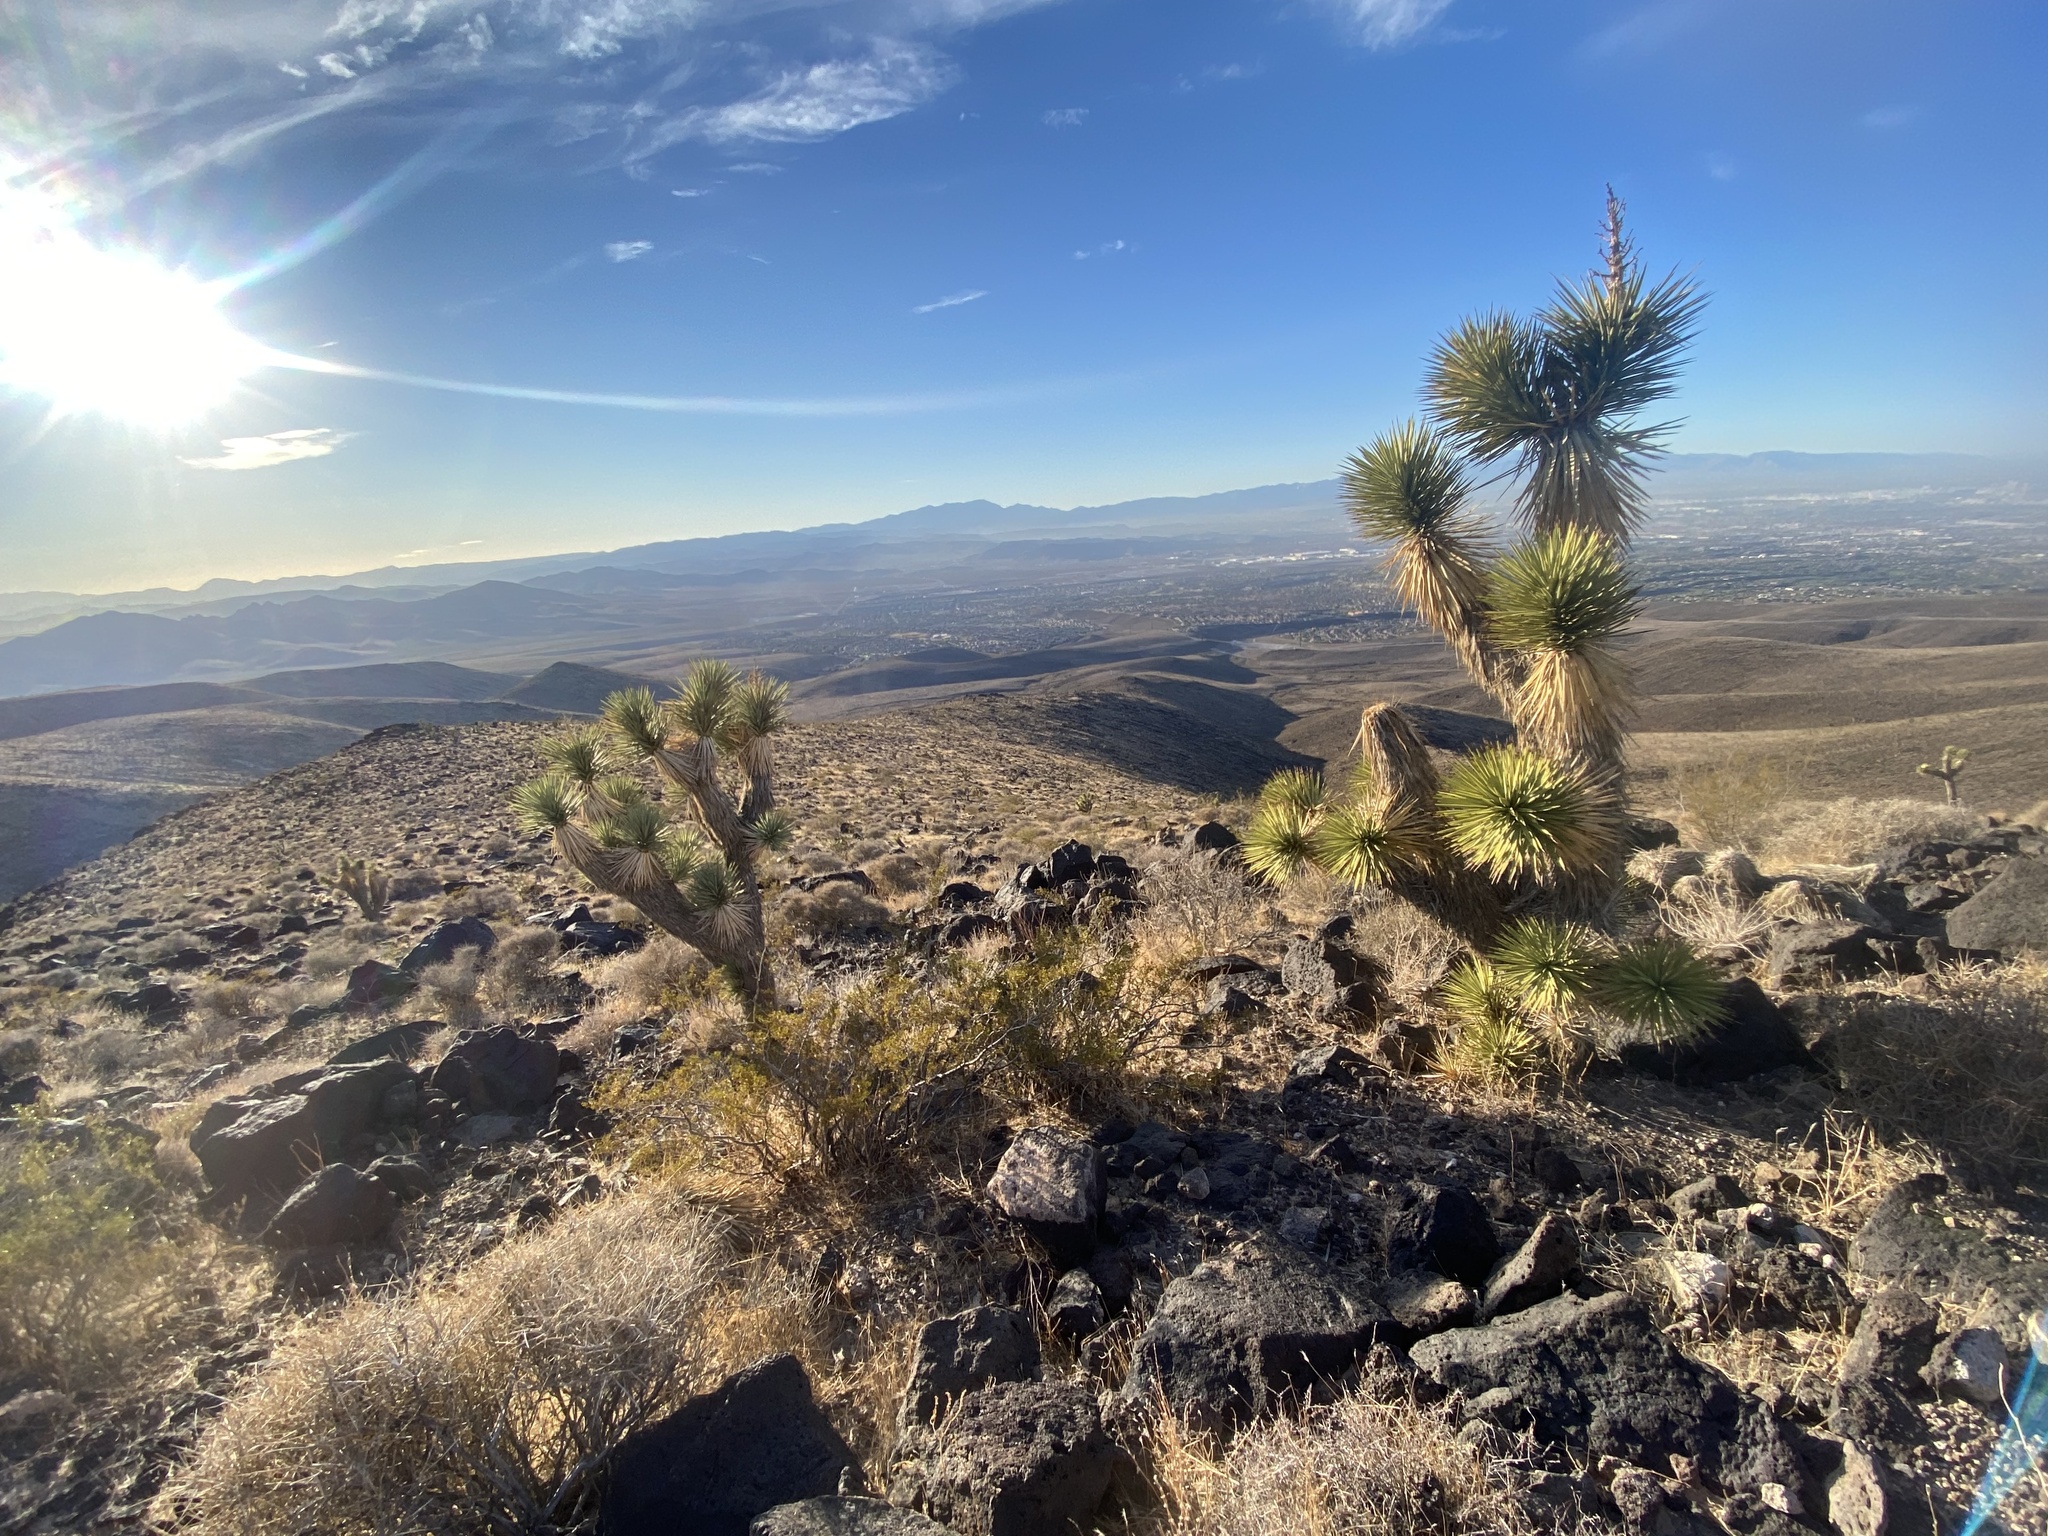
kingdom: Plantae
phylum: Tracheophyta
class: Liliopsida
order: Asparagales
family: Asparagaceae
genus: Yucca
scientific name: Yucca brevifolia
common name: Joshua tree
